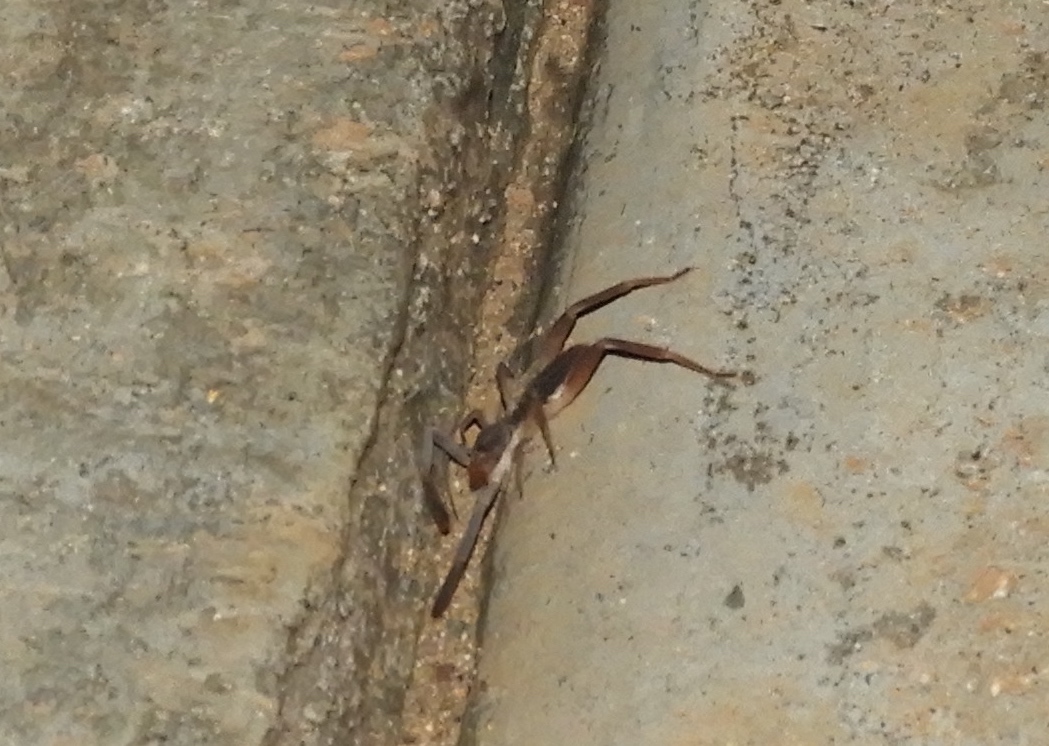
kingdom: Animalia
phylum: Arthropoda
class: Arachnida
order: Solifugae
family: Ammotrechidae
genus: Ammotrechula
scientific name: Ammotrechula boneti
